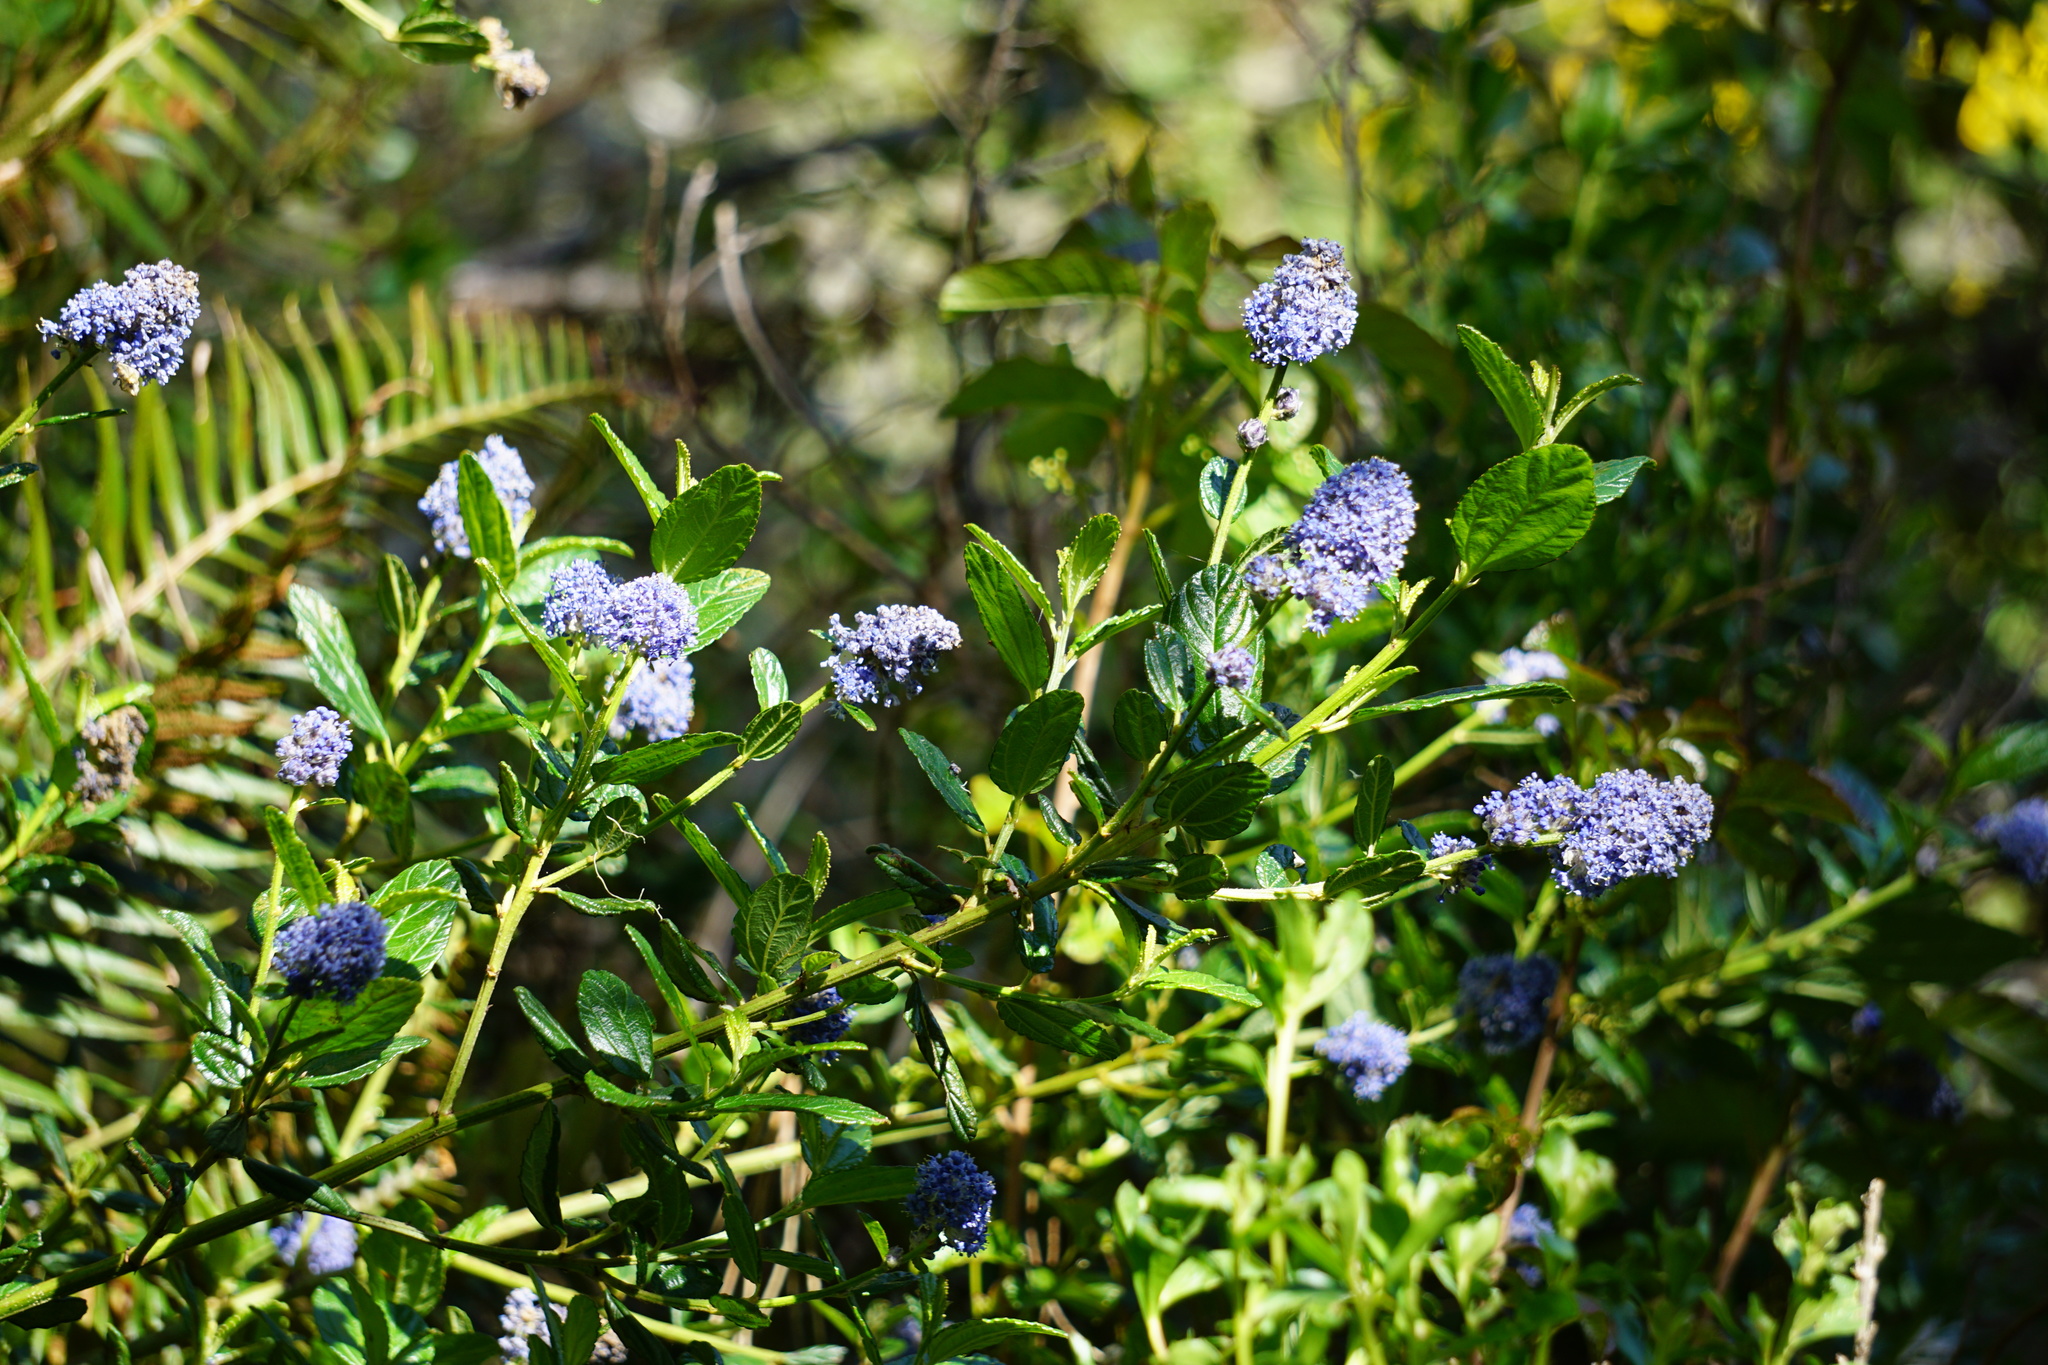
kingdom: Plantae
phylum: Tracheophyta
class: Magnoliopsida
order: Rosales
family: Rhamnaceae
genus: Ceanothus
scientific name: Ceanothus thyrsiflorus
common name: California-lilac
